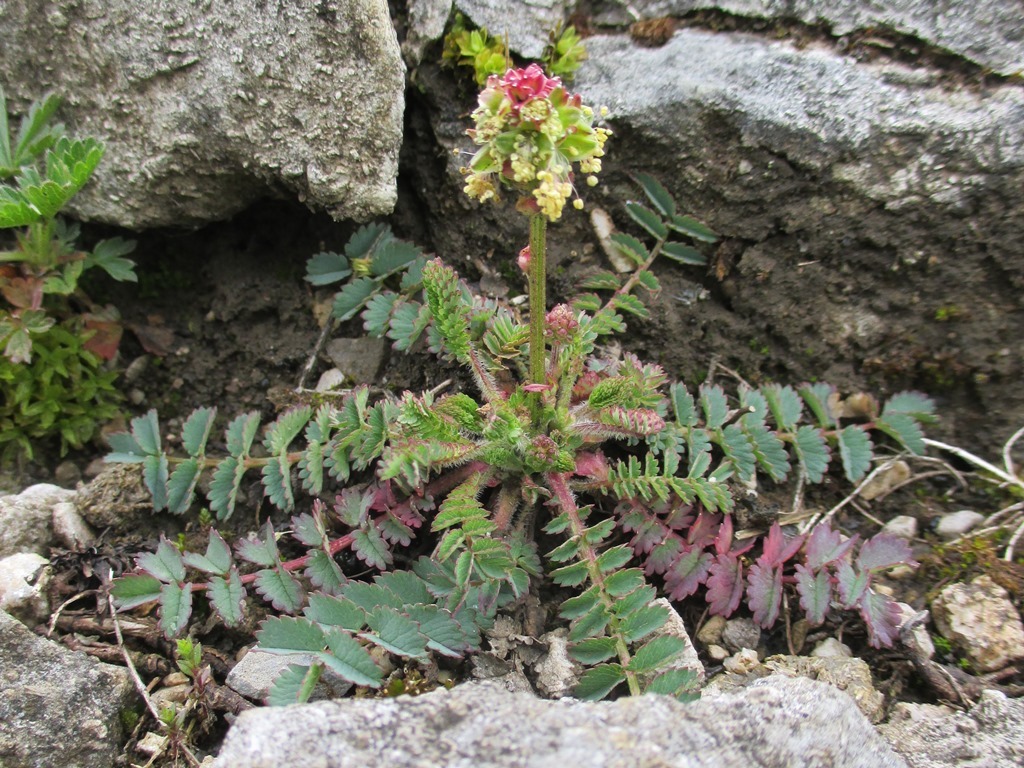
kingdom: Plantae
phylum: Tracheophyta
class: Magnoliopsida
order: Rosales
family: Rosaceae
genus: Poterium
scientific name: Poterium sanguisorba
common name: Salad burnet
